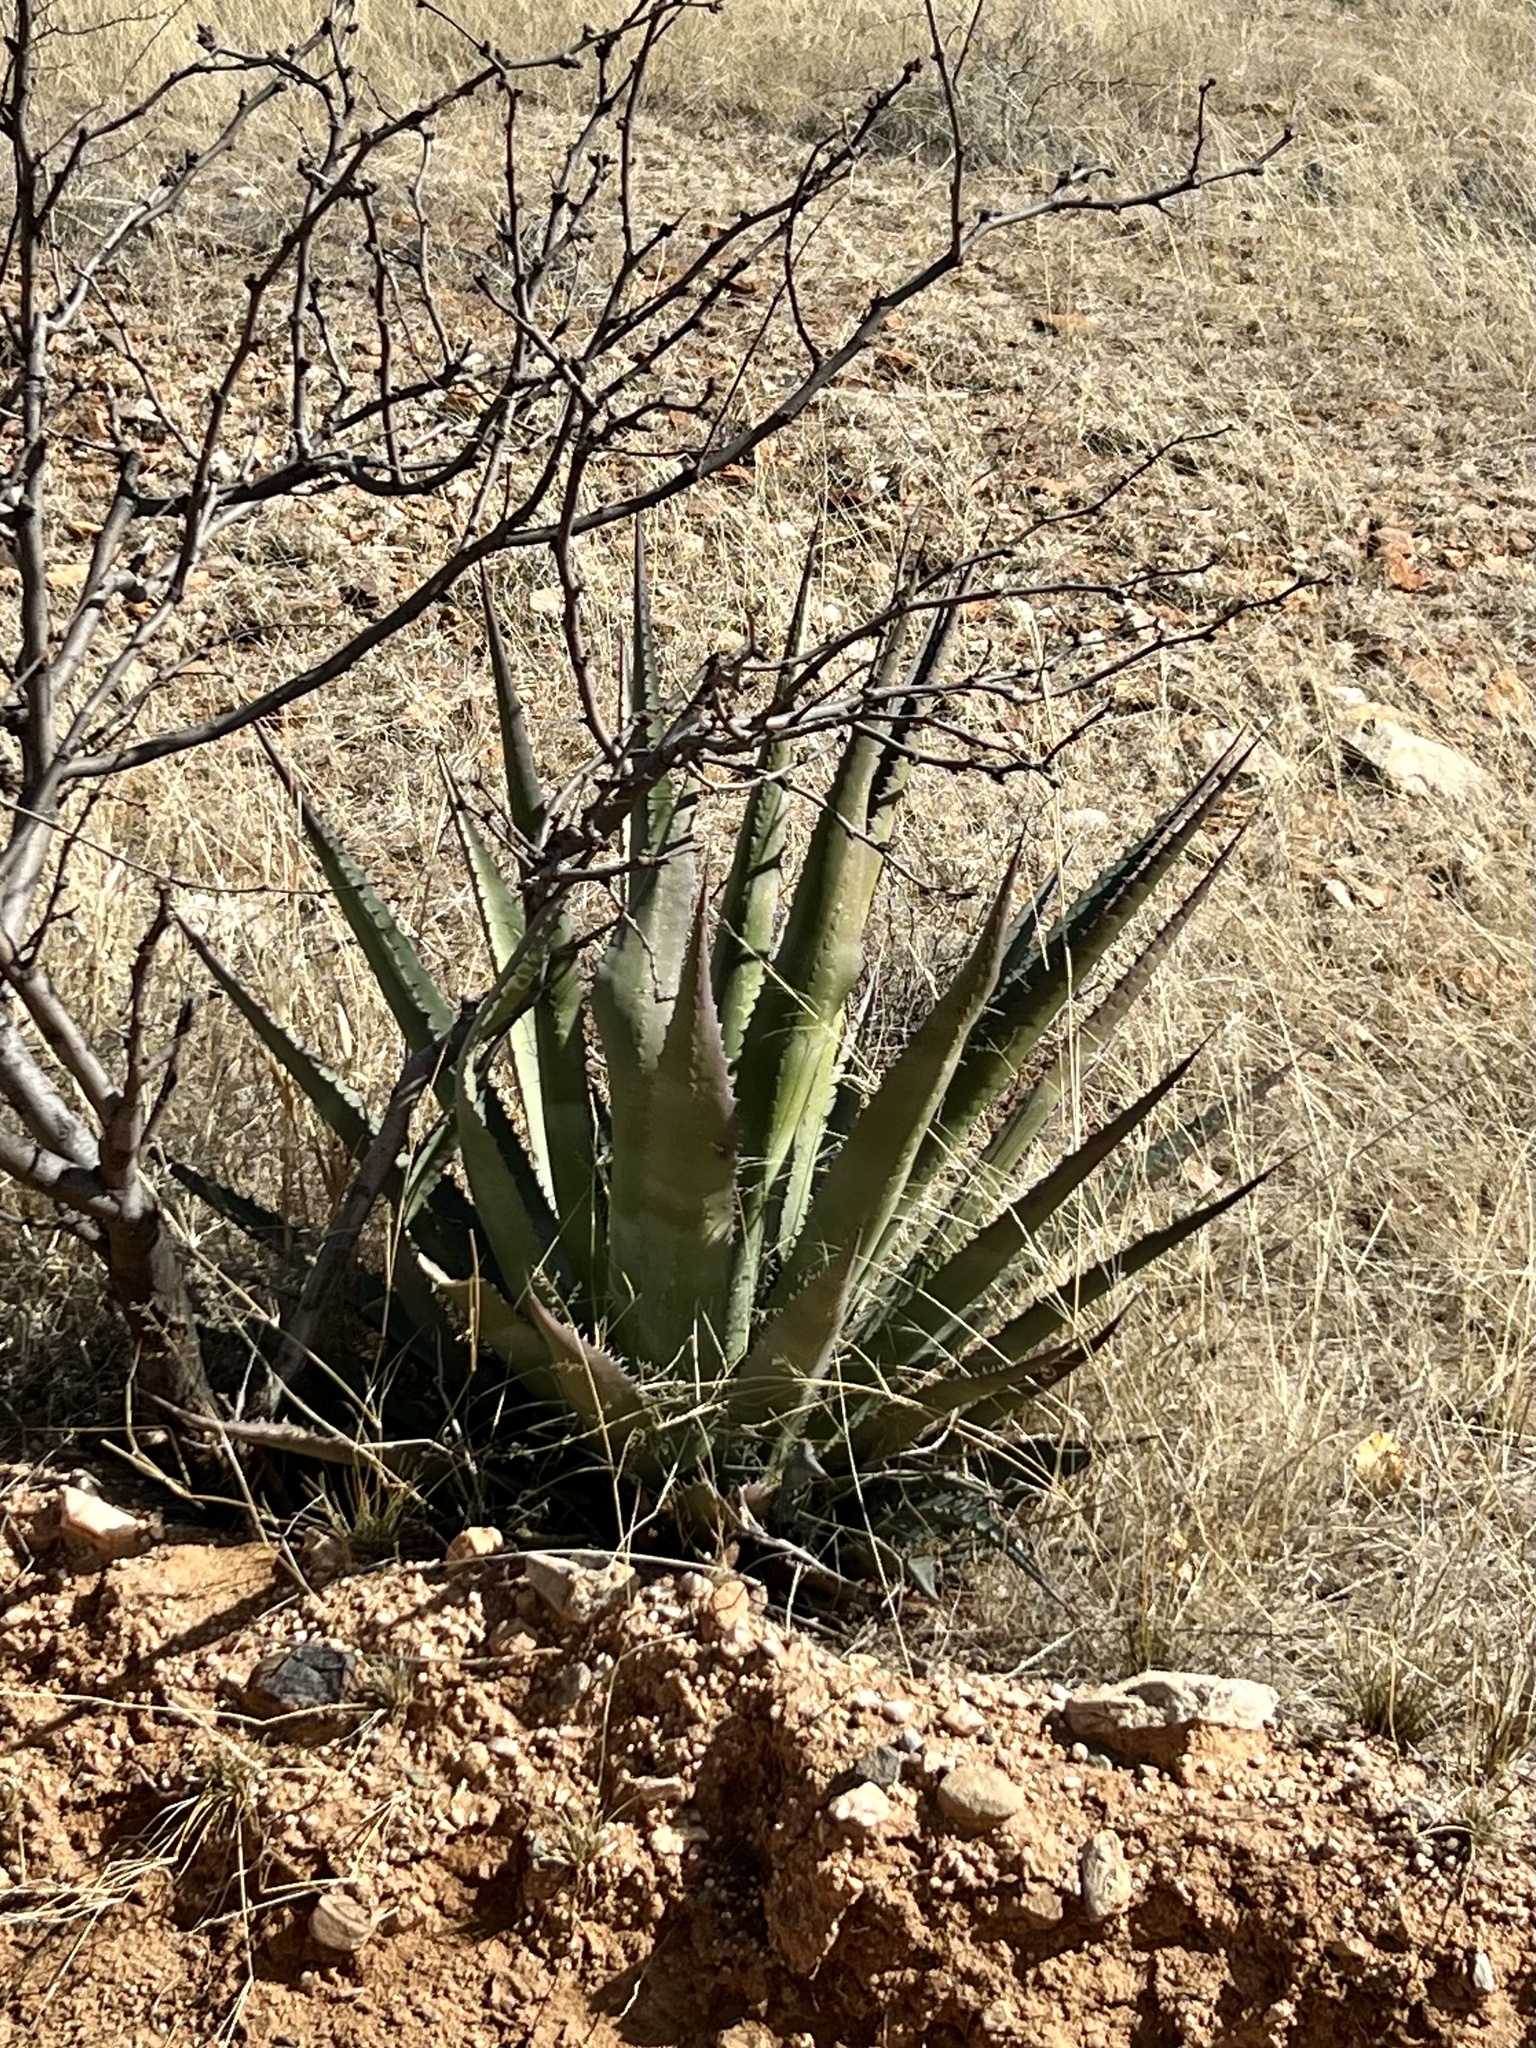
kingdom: Plantae
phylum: Tracheophyta
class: Liliopsida
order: Asparagales
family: Asparagaceae
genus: Agave
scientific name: Agave palmeri
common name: Palmer agave
